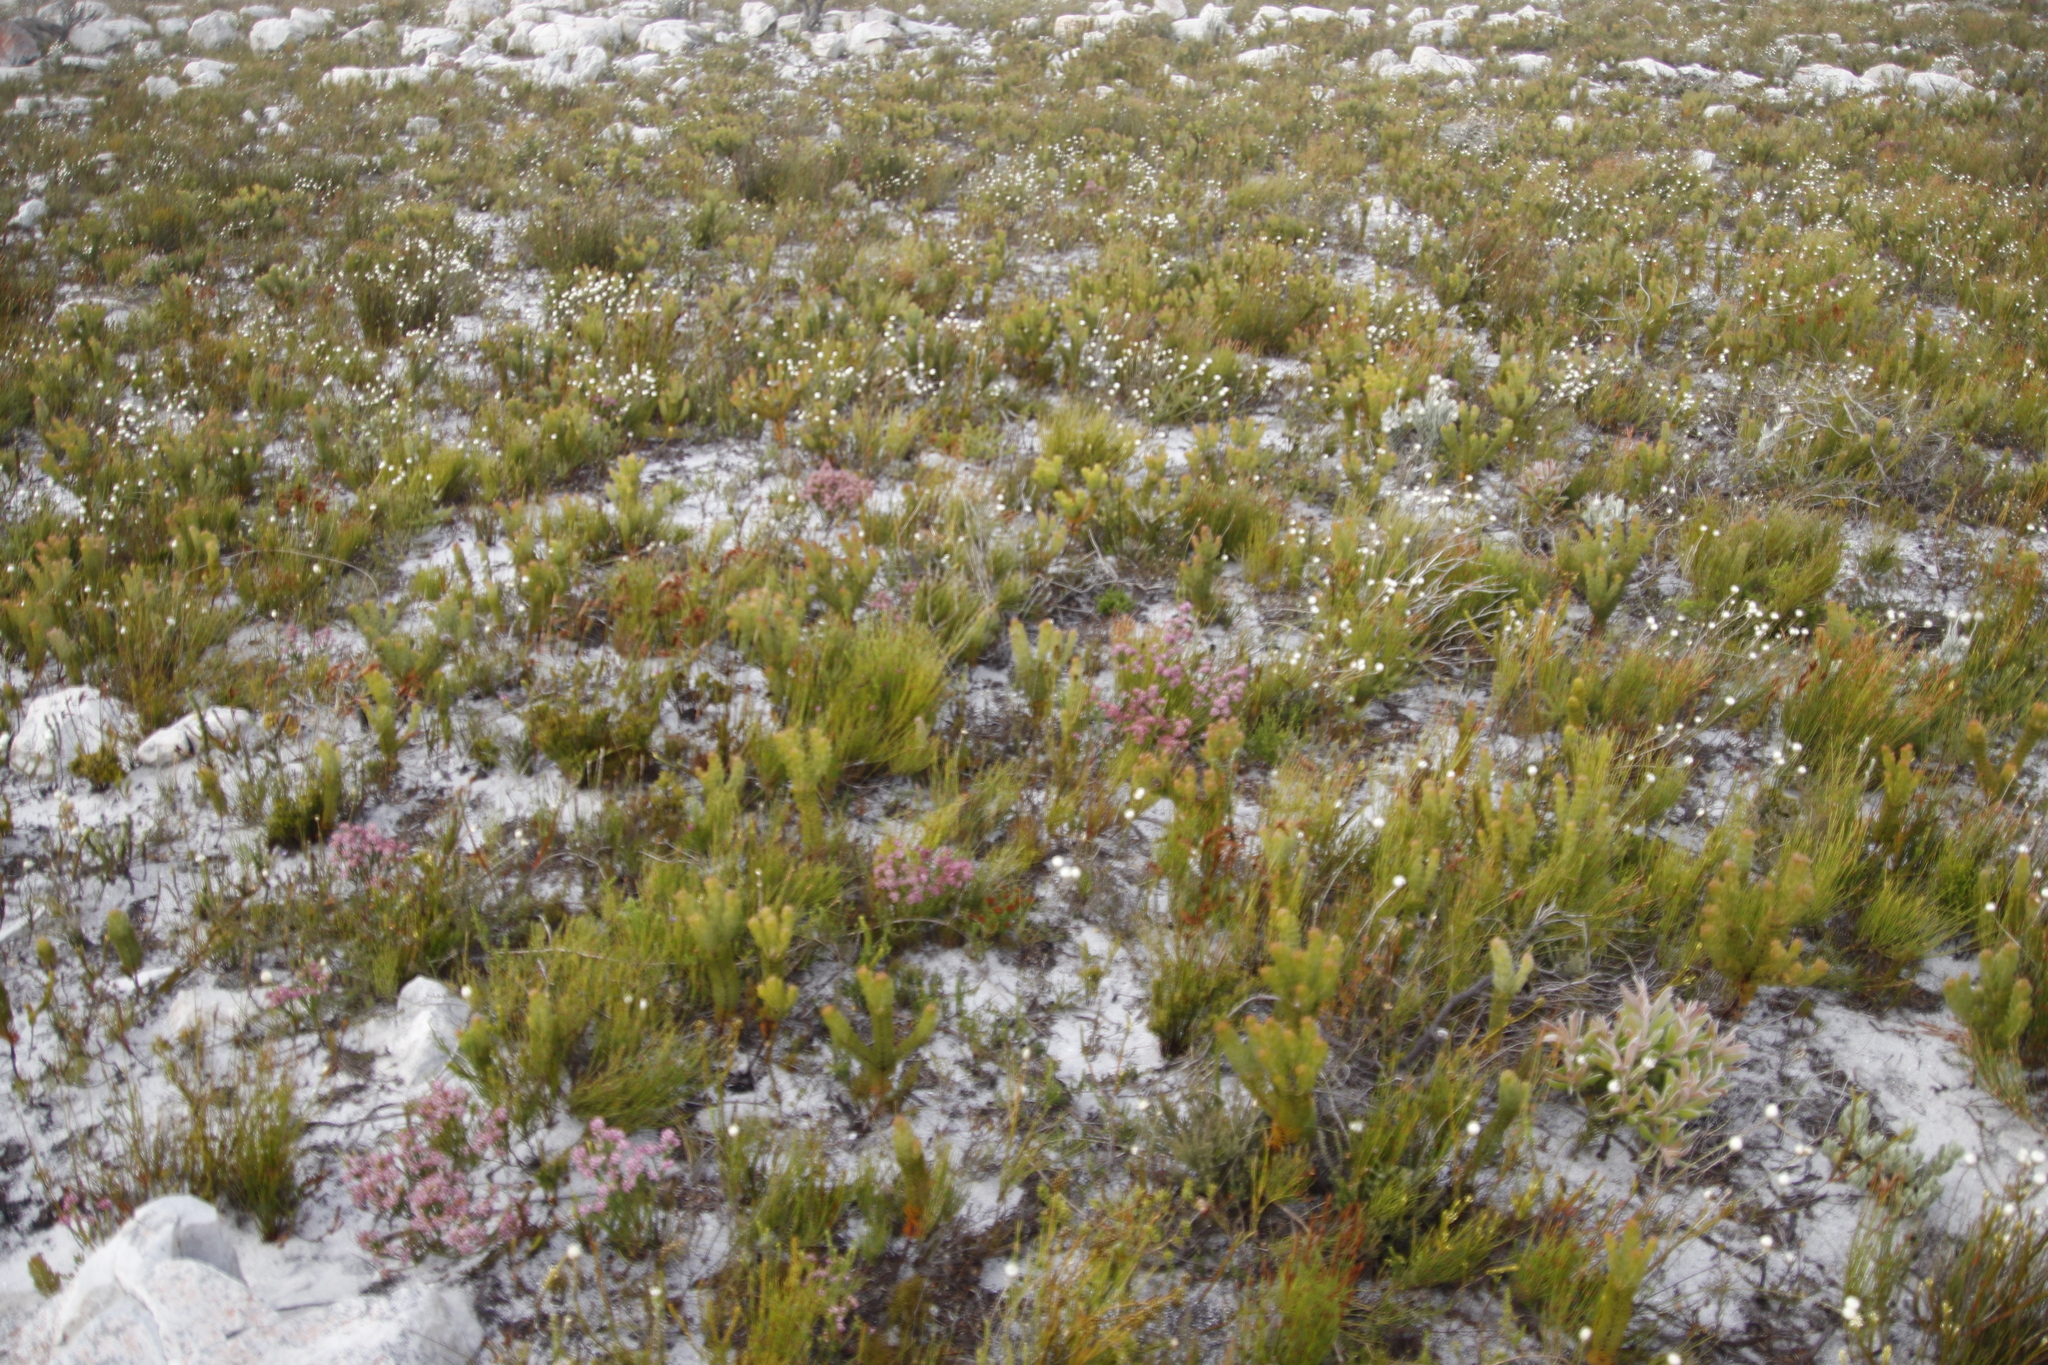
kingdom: Plantae
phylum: Tracheophyta
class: Magnoliopsida
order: Ericales
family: Ericaceae
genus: Erica
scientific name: Erica corifolia
